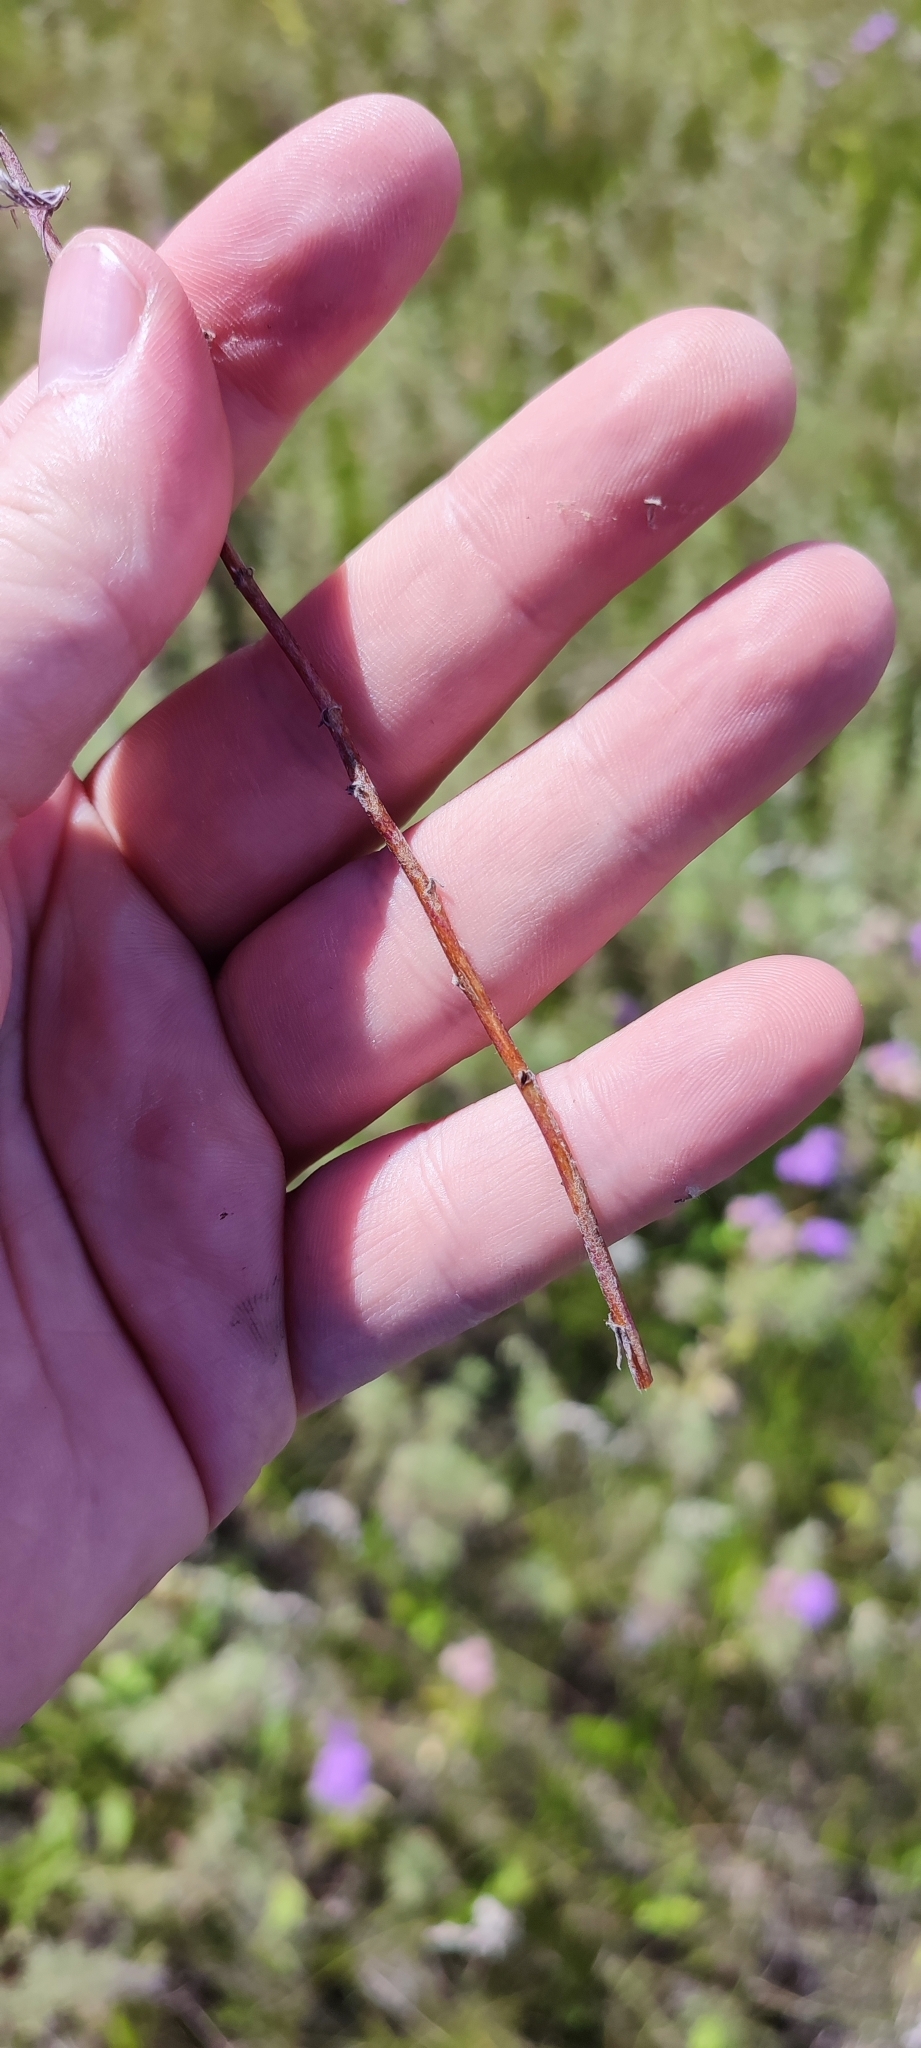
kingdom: Plantae
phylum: Tracheophyta
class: Magnoliopsida
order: Asterales
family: Asteraceae
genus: Artemisia
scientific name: Artemisia macrantha
